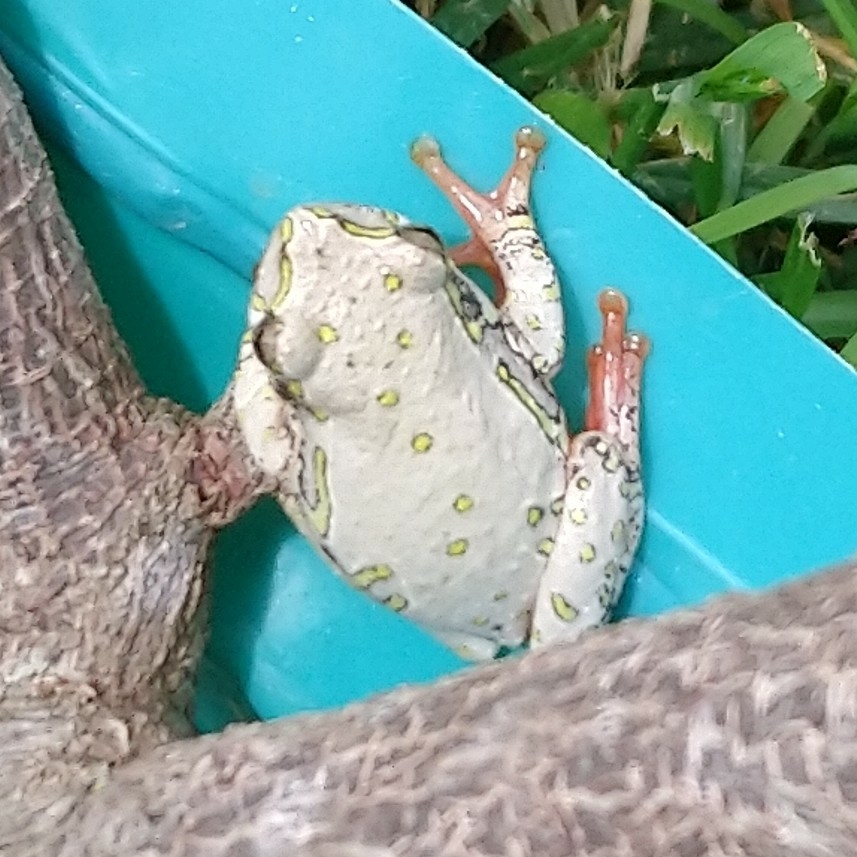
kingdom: Animalia
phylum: Chordata
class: Amphibia
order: Anura
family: Hyperoliidae
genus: Hyperolius
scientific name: Hyperolius marmoratus
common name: Painted reed frog
